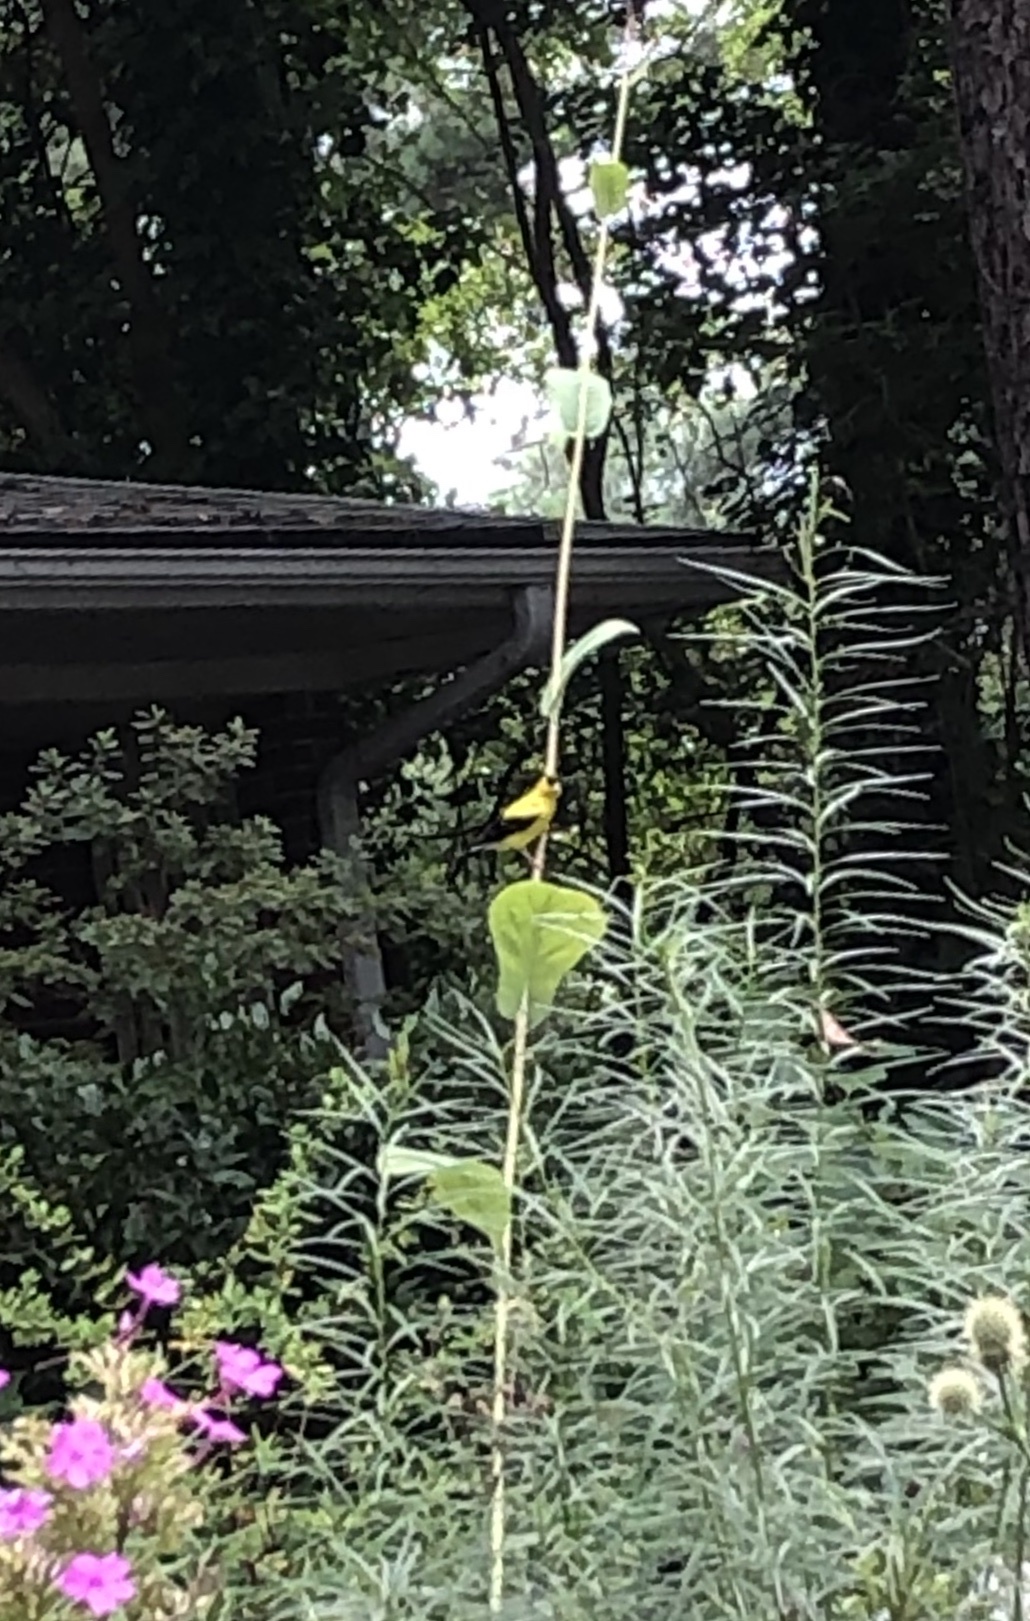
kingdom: Animalia
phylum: Chordata
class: Aves
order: Passeriformes
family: Fringillidae
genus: Spinus
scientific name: Spinus tristis
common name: American goldfinch
